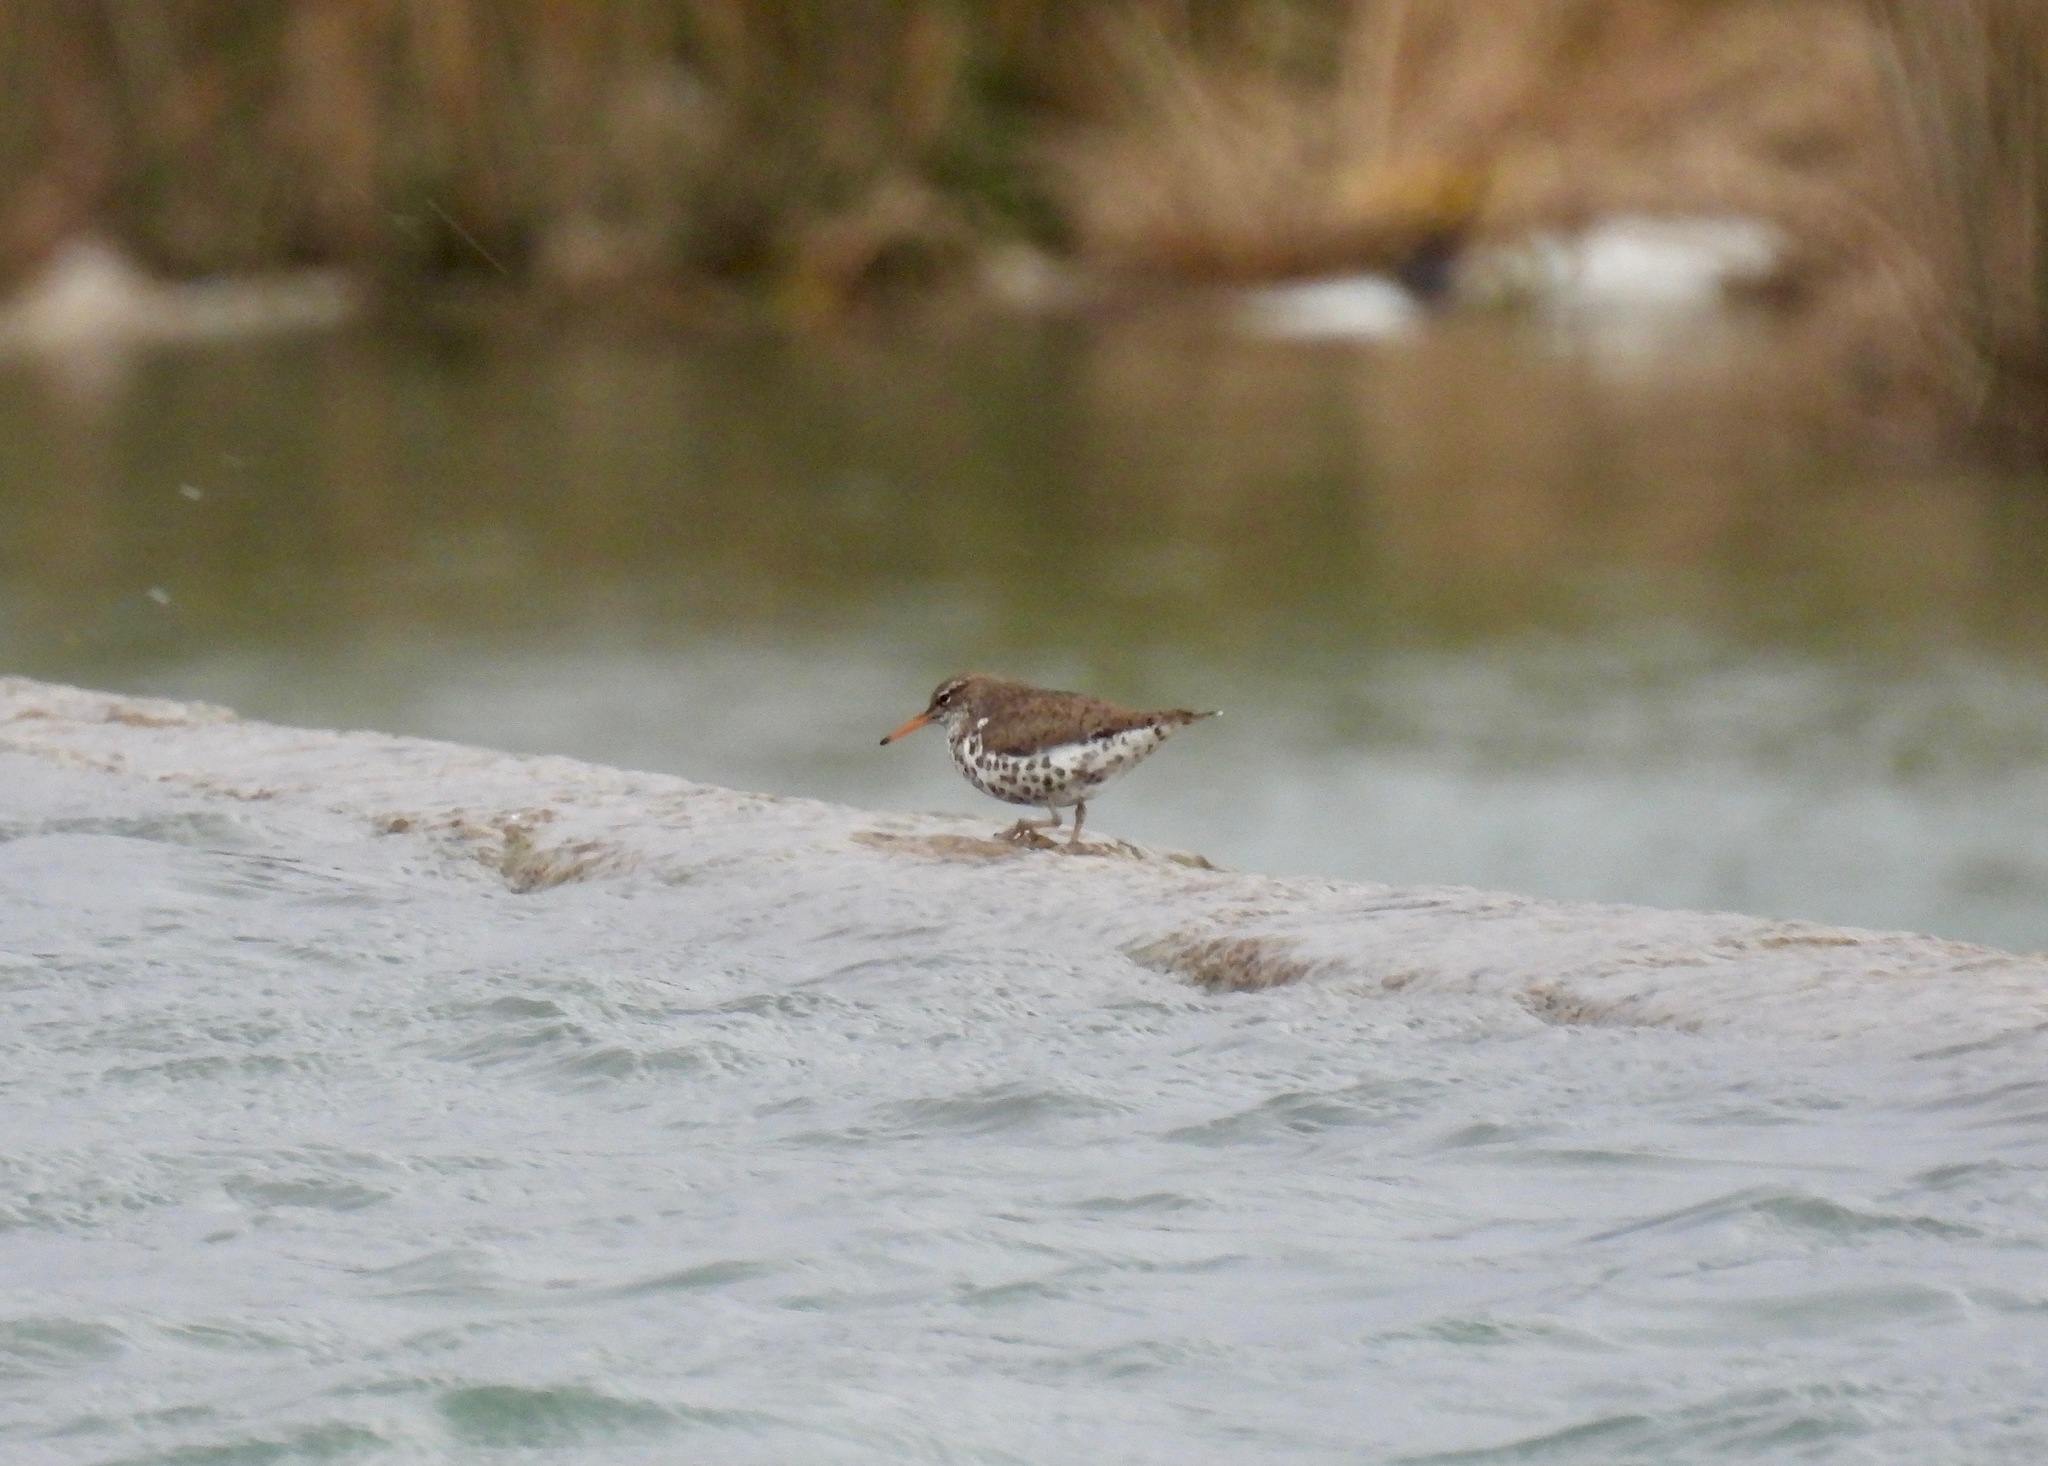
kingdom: Animalia
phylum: Chordata
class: Aves
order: Charadriiformes
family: Scolopacidae
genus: Actitis
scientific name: Actitis macularius
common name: Spotted sandpiper
